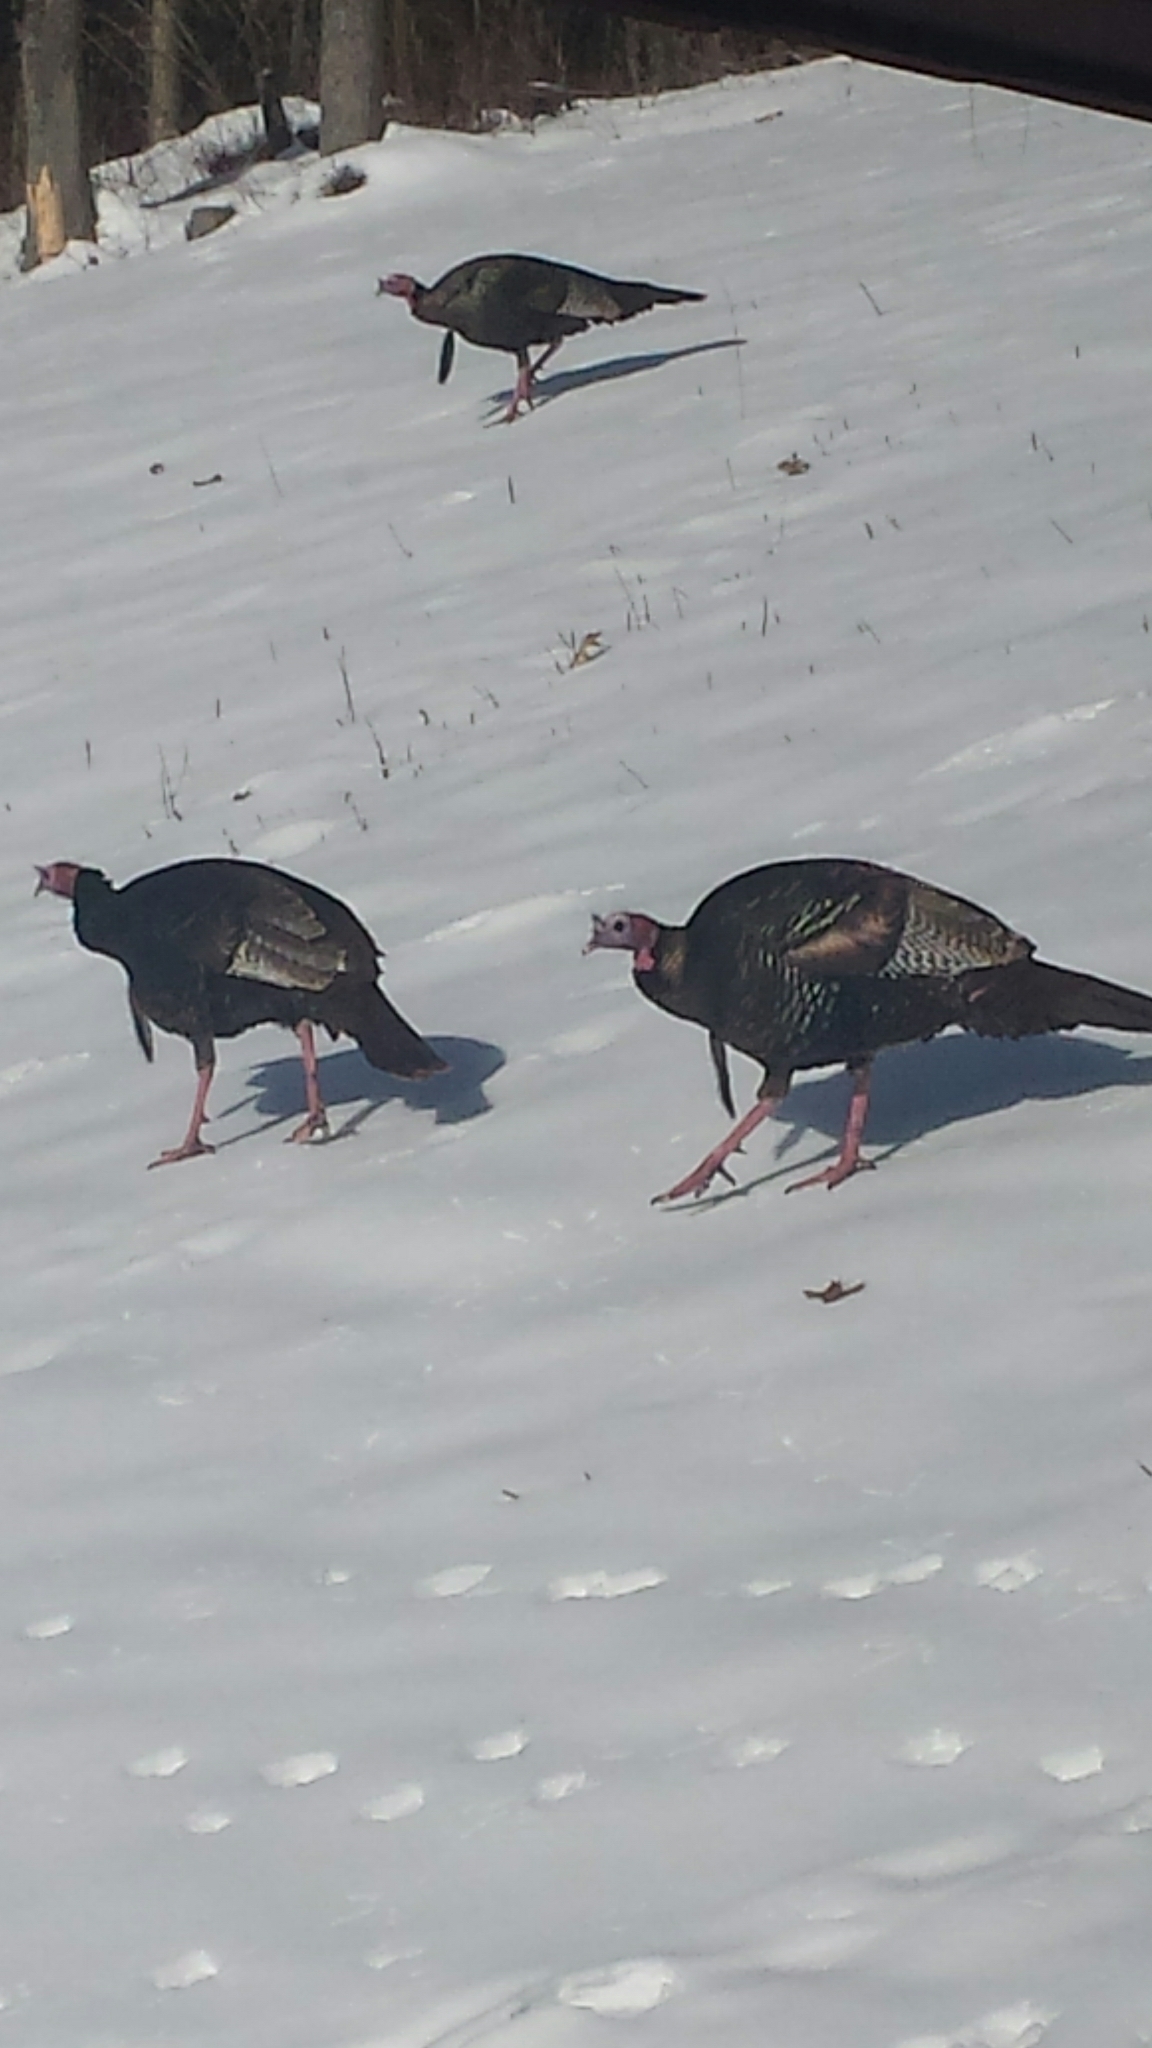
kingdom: Animalia
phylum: Chordata
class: Aves
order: Galliformes
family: Phasianidae
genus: Meleagris
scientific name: Meleagris gallopavo
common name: Wild turkey
